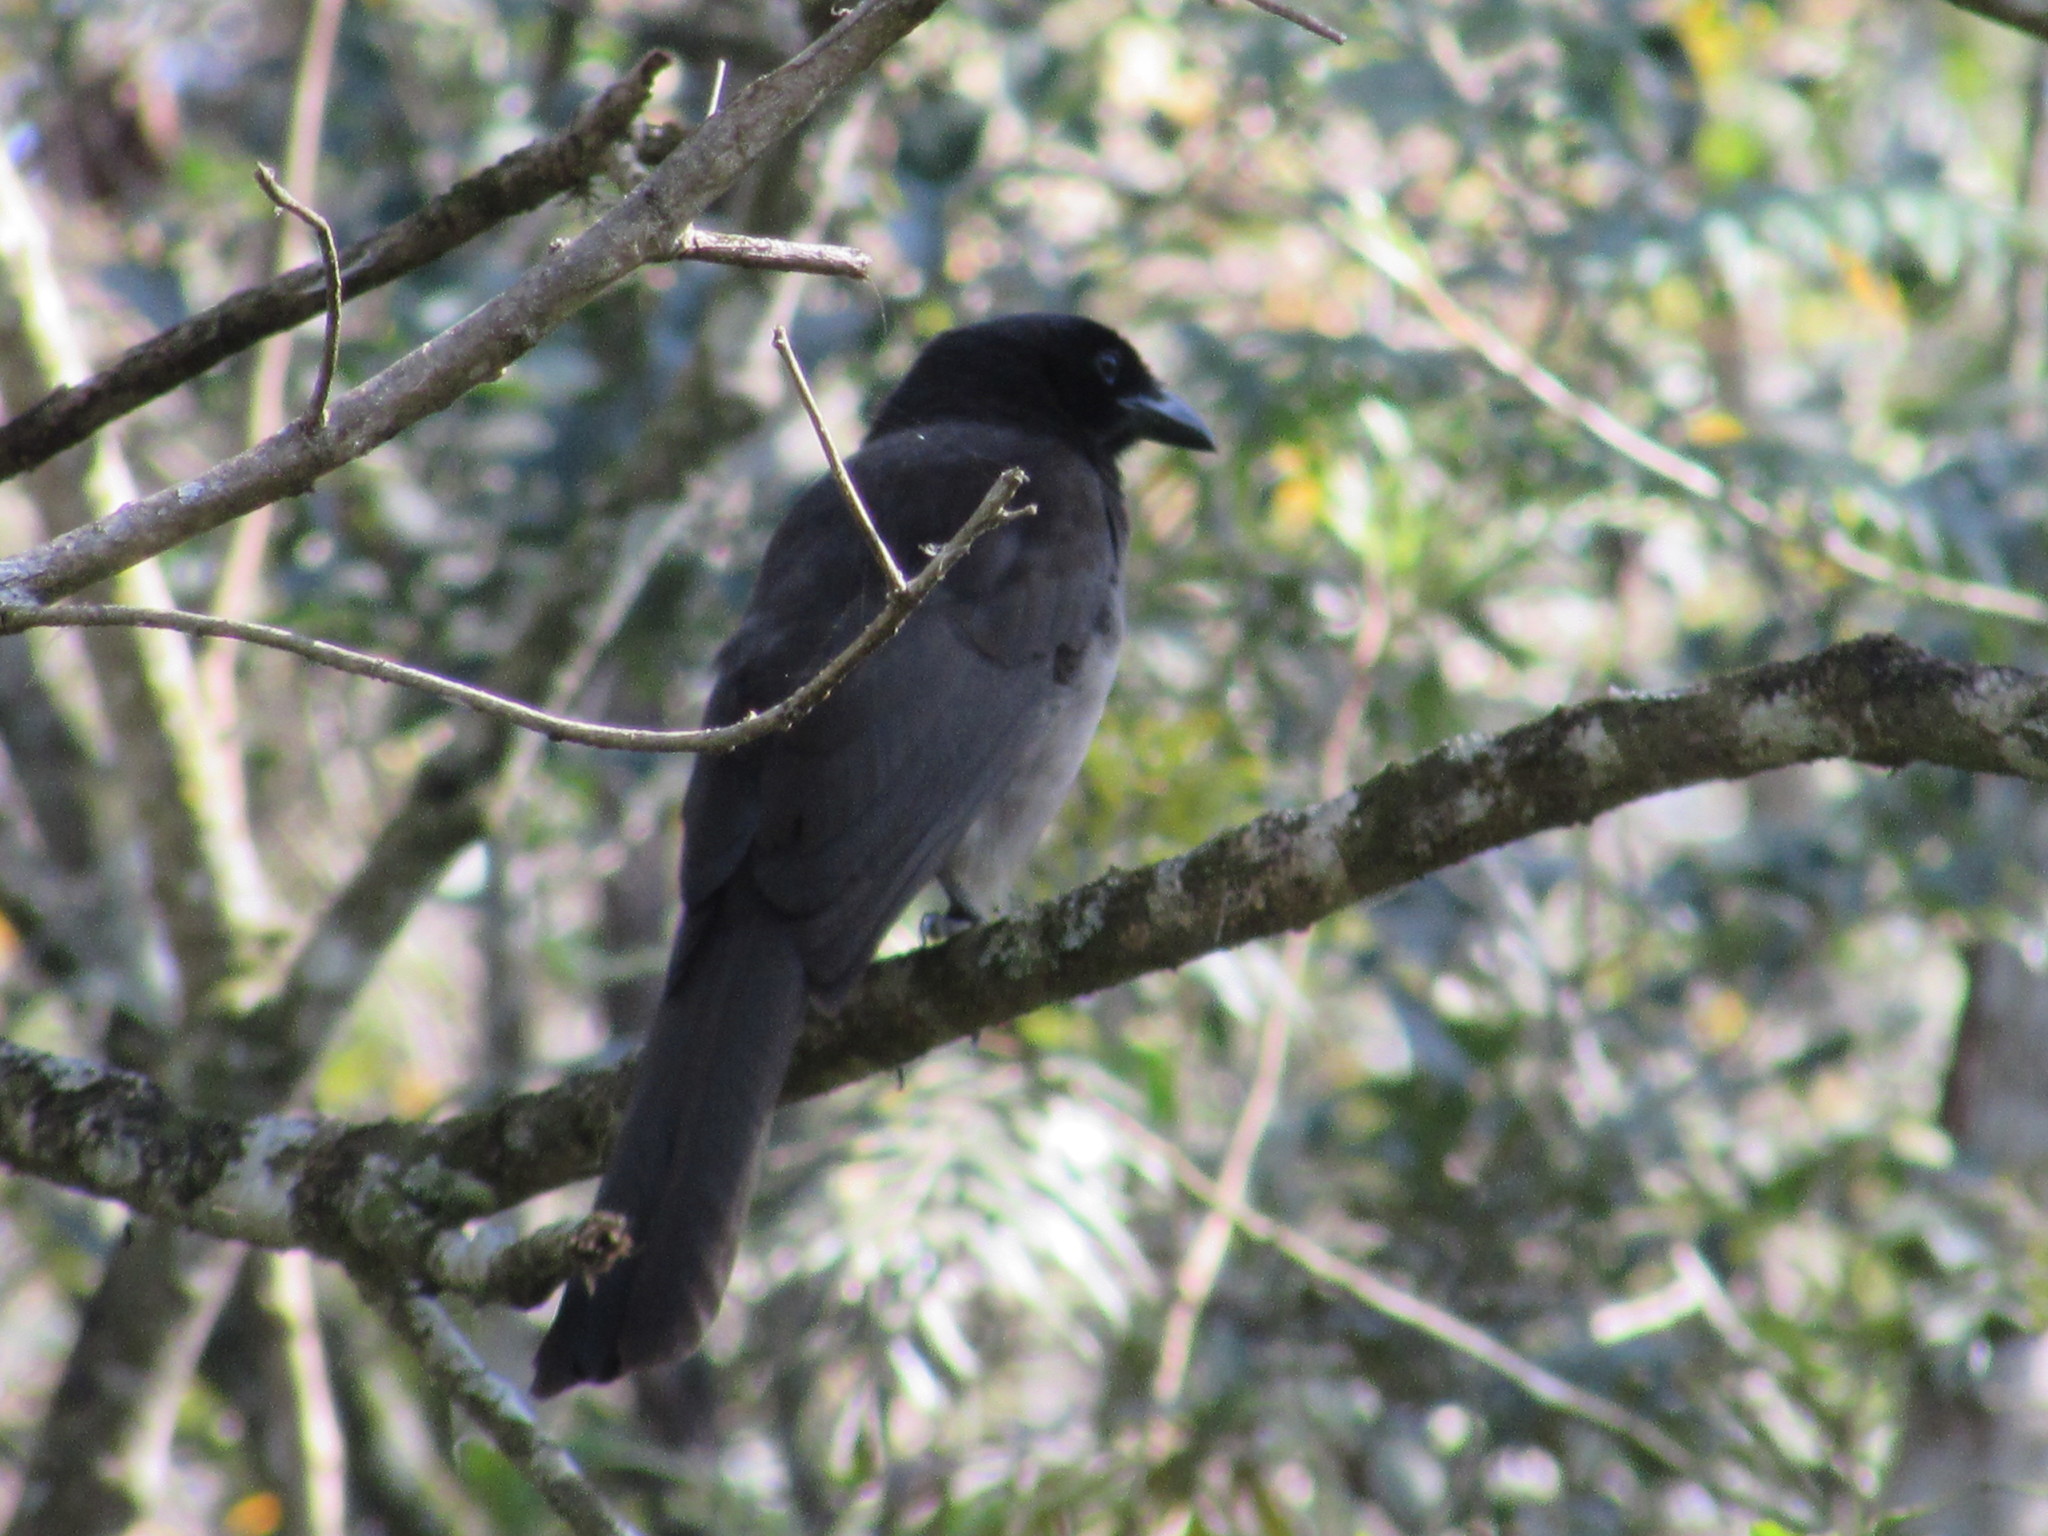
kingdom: Animalia
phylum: Chordata
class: Aves
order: Passeriformes
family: Corvidae
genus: Psilorhinus
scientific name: Psilorhinus morio
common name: Brown jay
